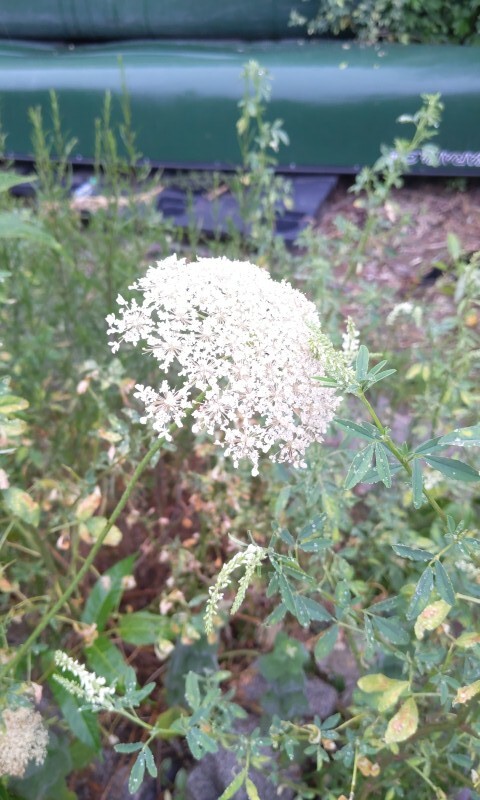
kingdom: Plantae
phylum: Tracheophyta
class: Magnoliopsida
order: Apiales
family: Apiaceae
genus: Daucus
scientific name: Daucus carota
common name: Wild carrot
